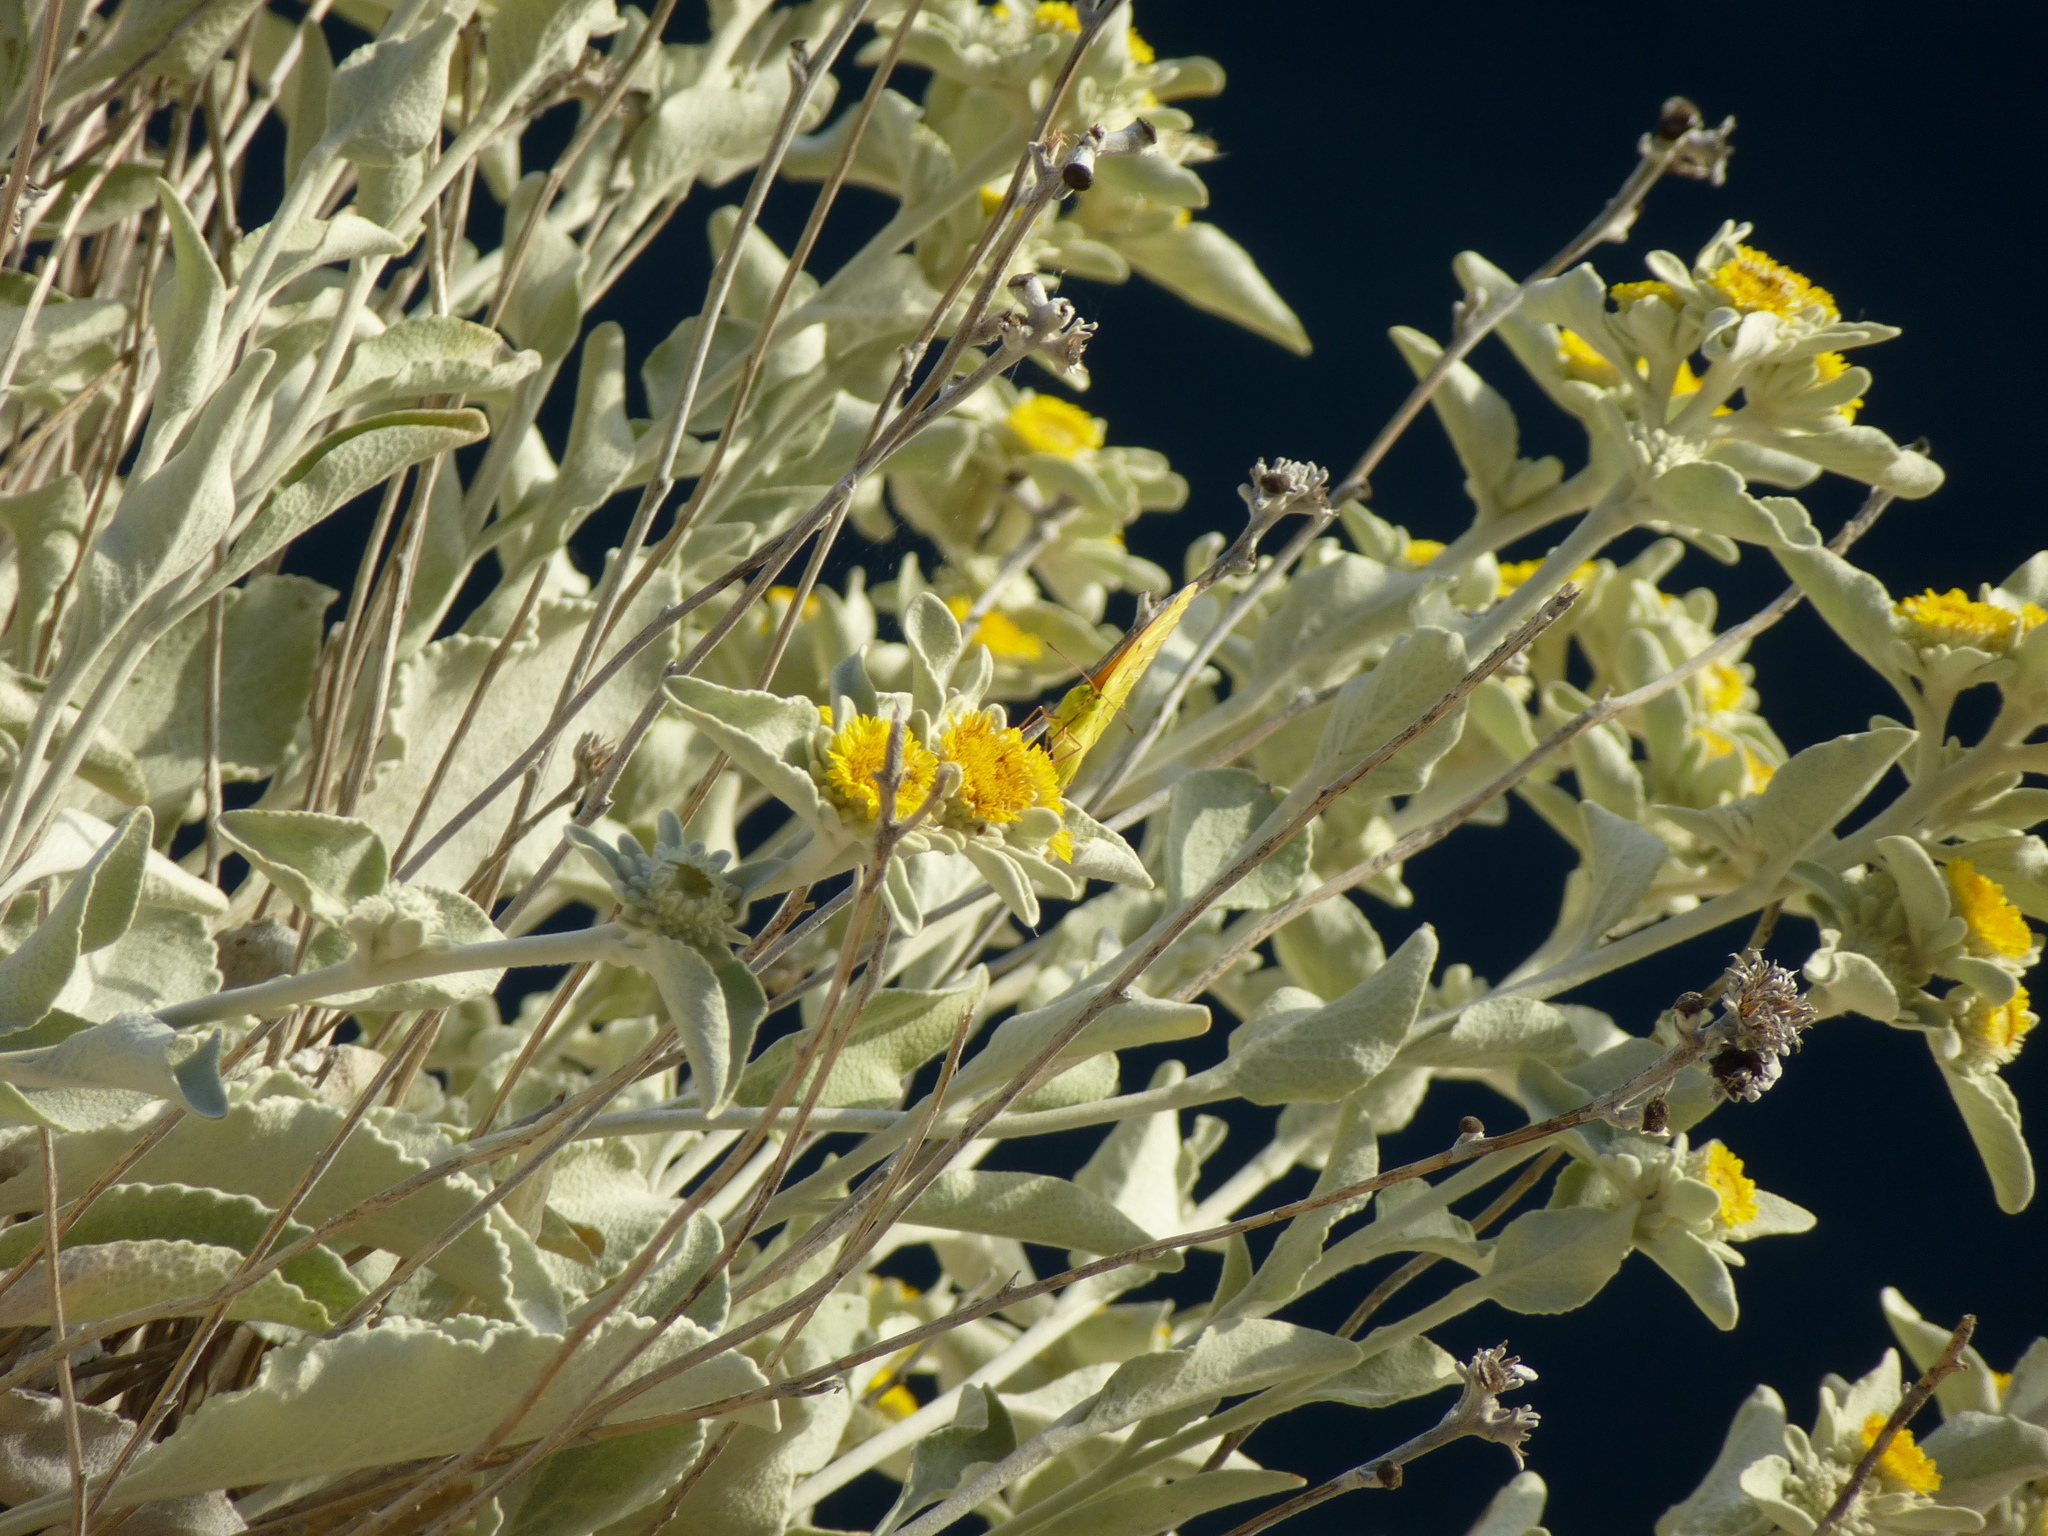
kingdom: Animalia
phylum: Arthropoda
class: Insecta
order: Lepidoptera
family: Pieridae
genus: Colias
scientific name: Colias croceus
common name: Clouded yellow
